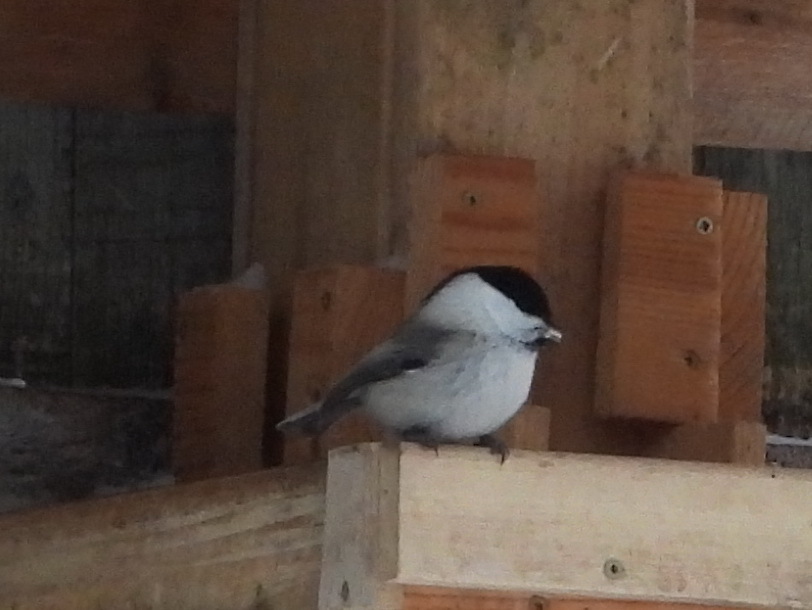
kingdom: Animalia
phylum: Chordata
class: Aves
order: Passeriformes
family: Paridae
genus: Poecile
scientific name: Poecile montanus
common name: Willow tit
